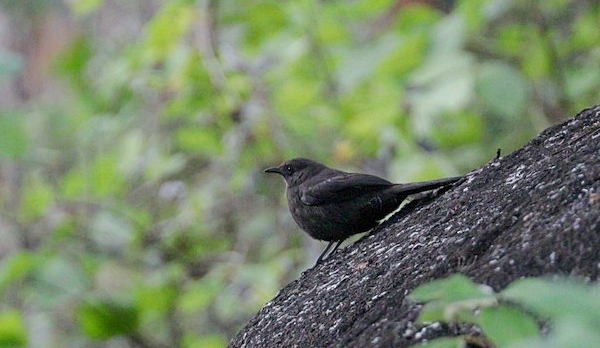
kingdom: Animalia
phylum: Chordata
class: Aves
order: Passeriformes
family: Muscicapidae
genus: Pinarornis
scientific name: Pinarornis plumosus
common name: Boulder chat
